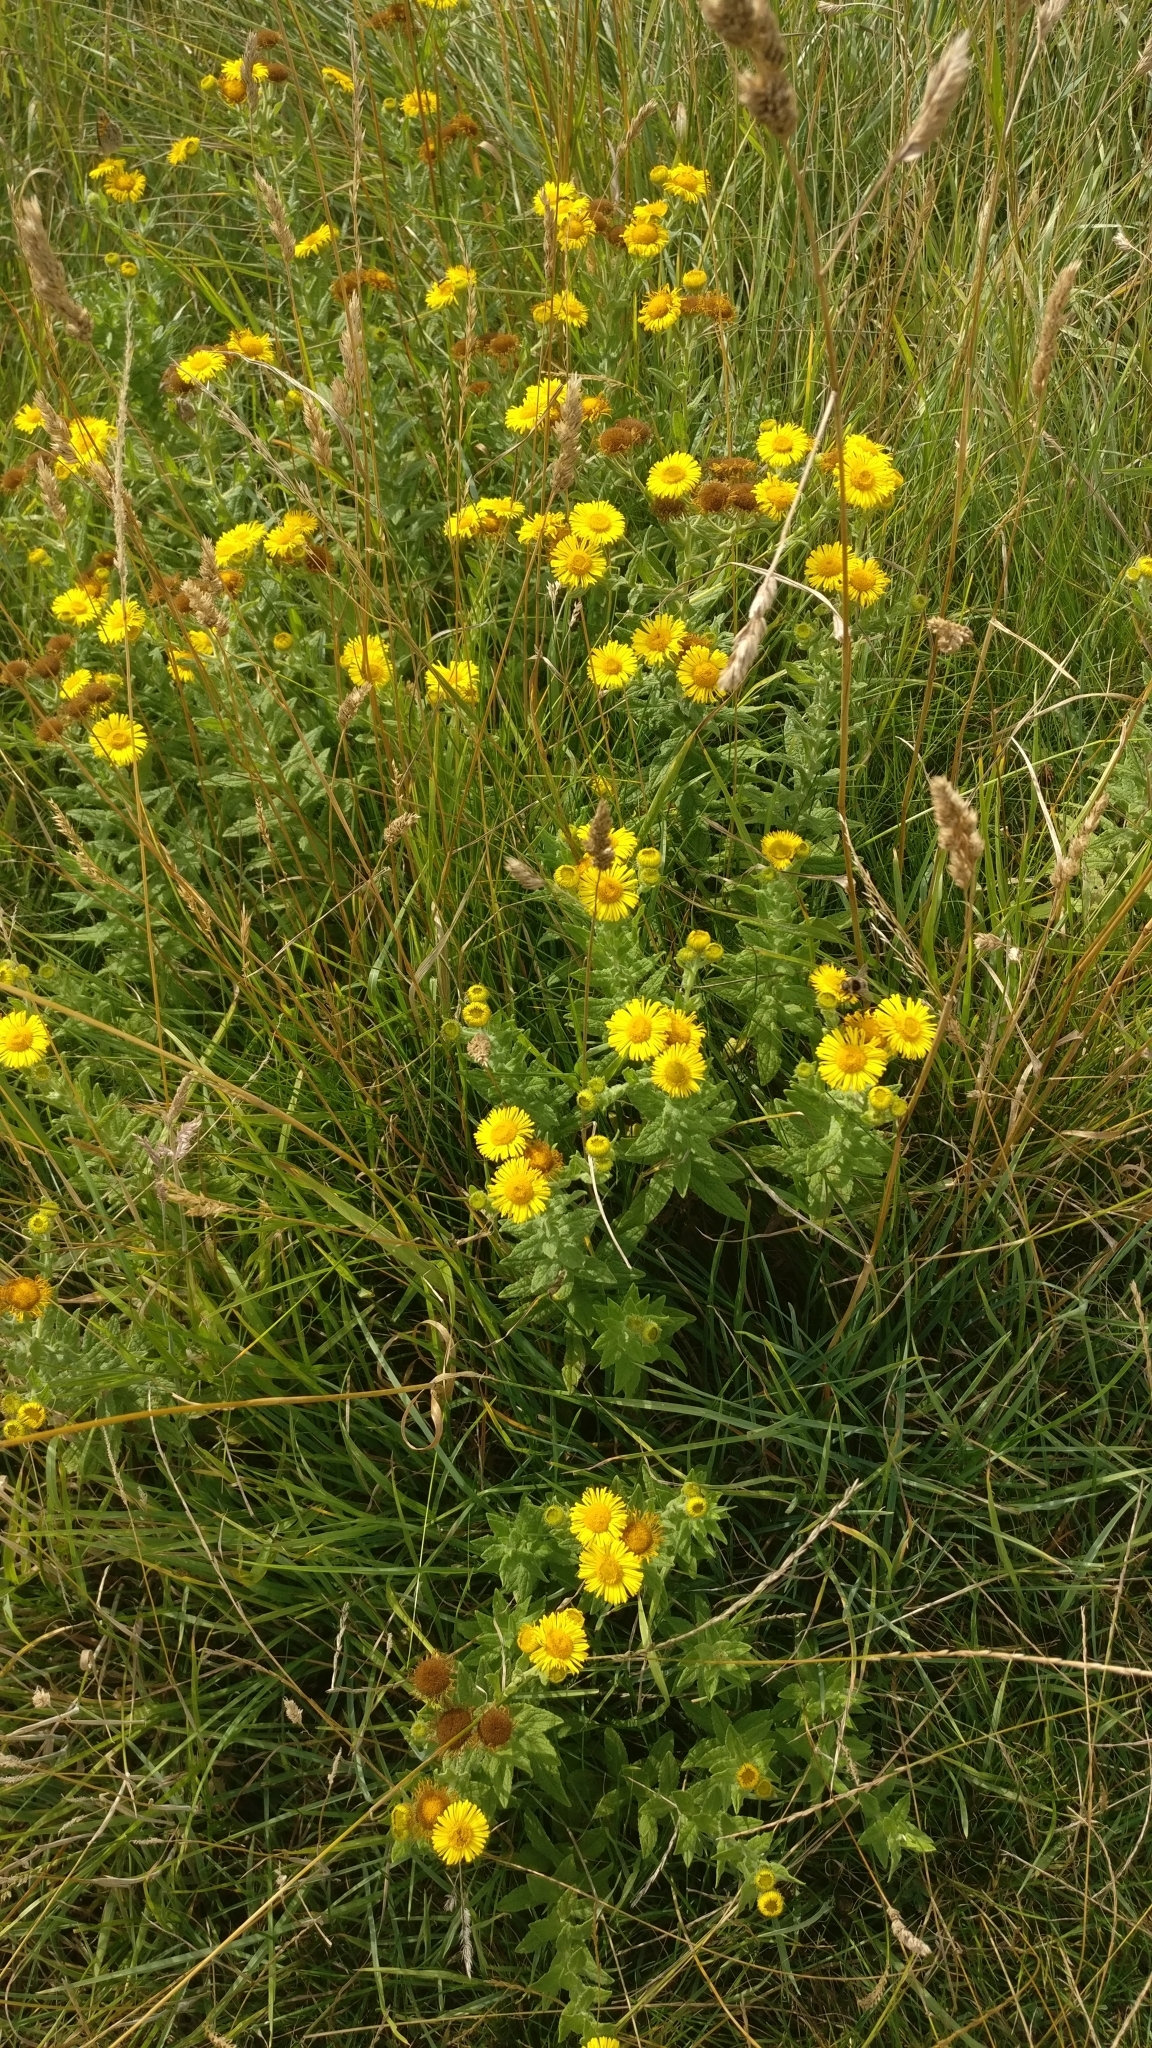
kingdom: Plantae
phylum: Tracheophyta
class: Magnoliopsida
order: Asterales
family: Asteraceae
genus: Pulicaria
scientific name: Pulicaria dysenterica
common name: Common fleabane
